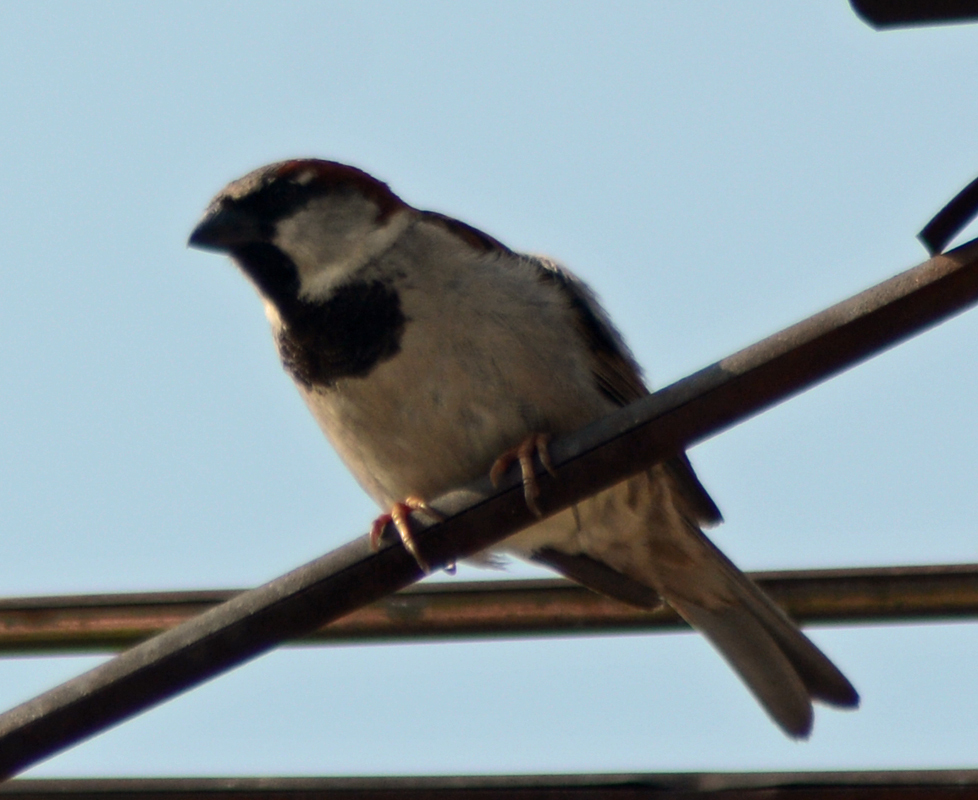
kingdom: Animalia
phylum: Chordata
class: Aves
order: Passeriformes
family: Passeridae
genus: Passer
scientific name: Passer domesticus
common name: House sparrow
